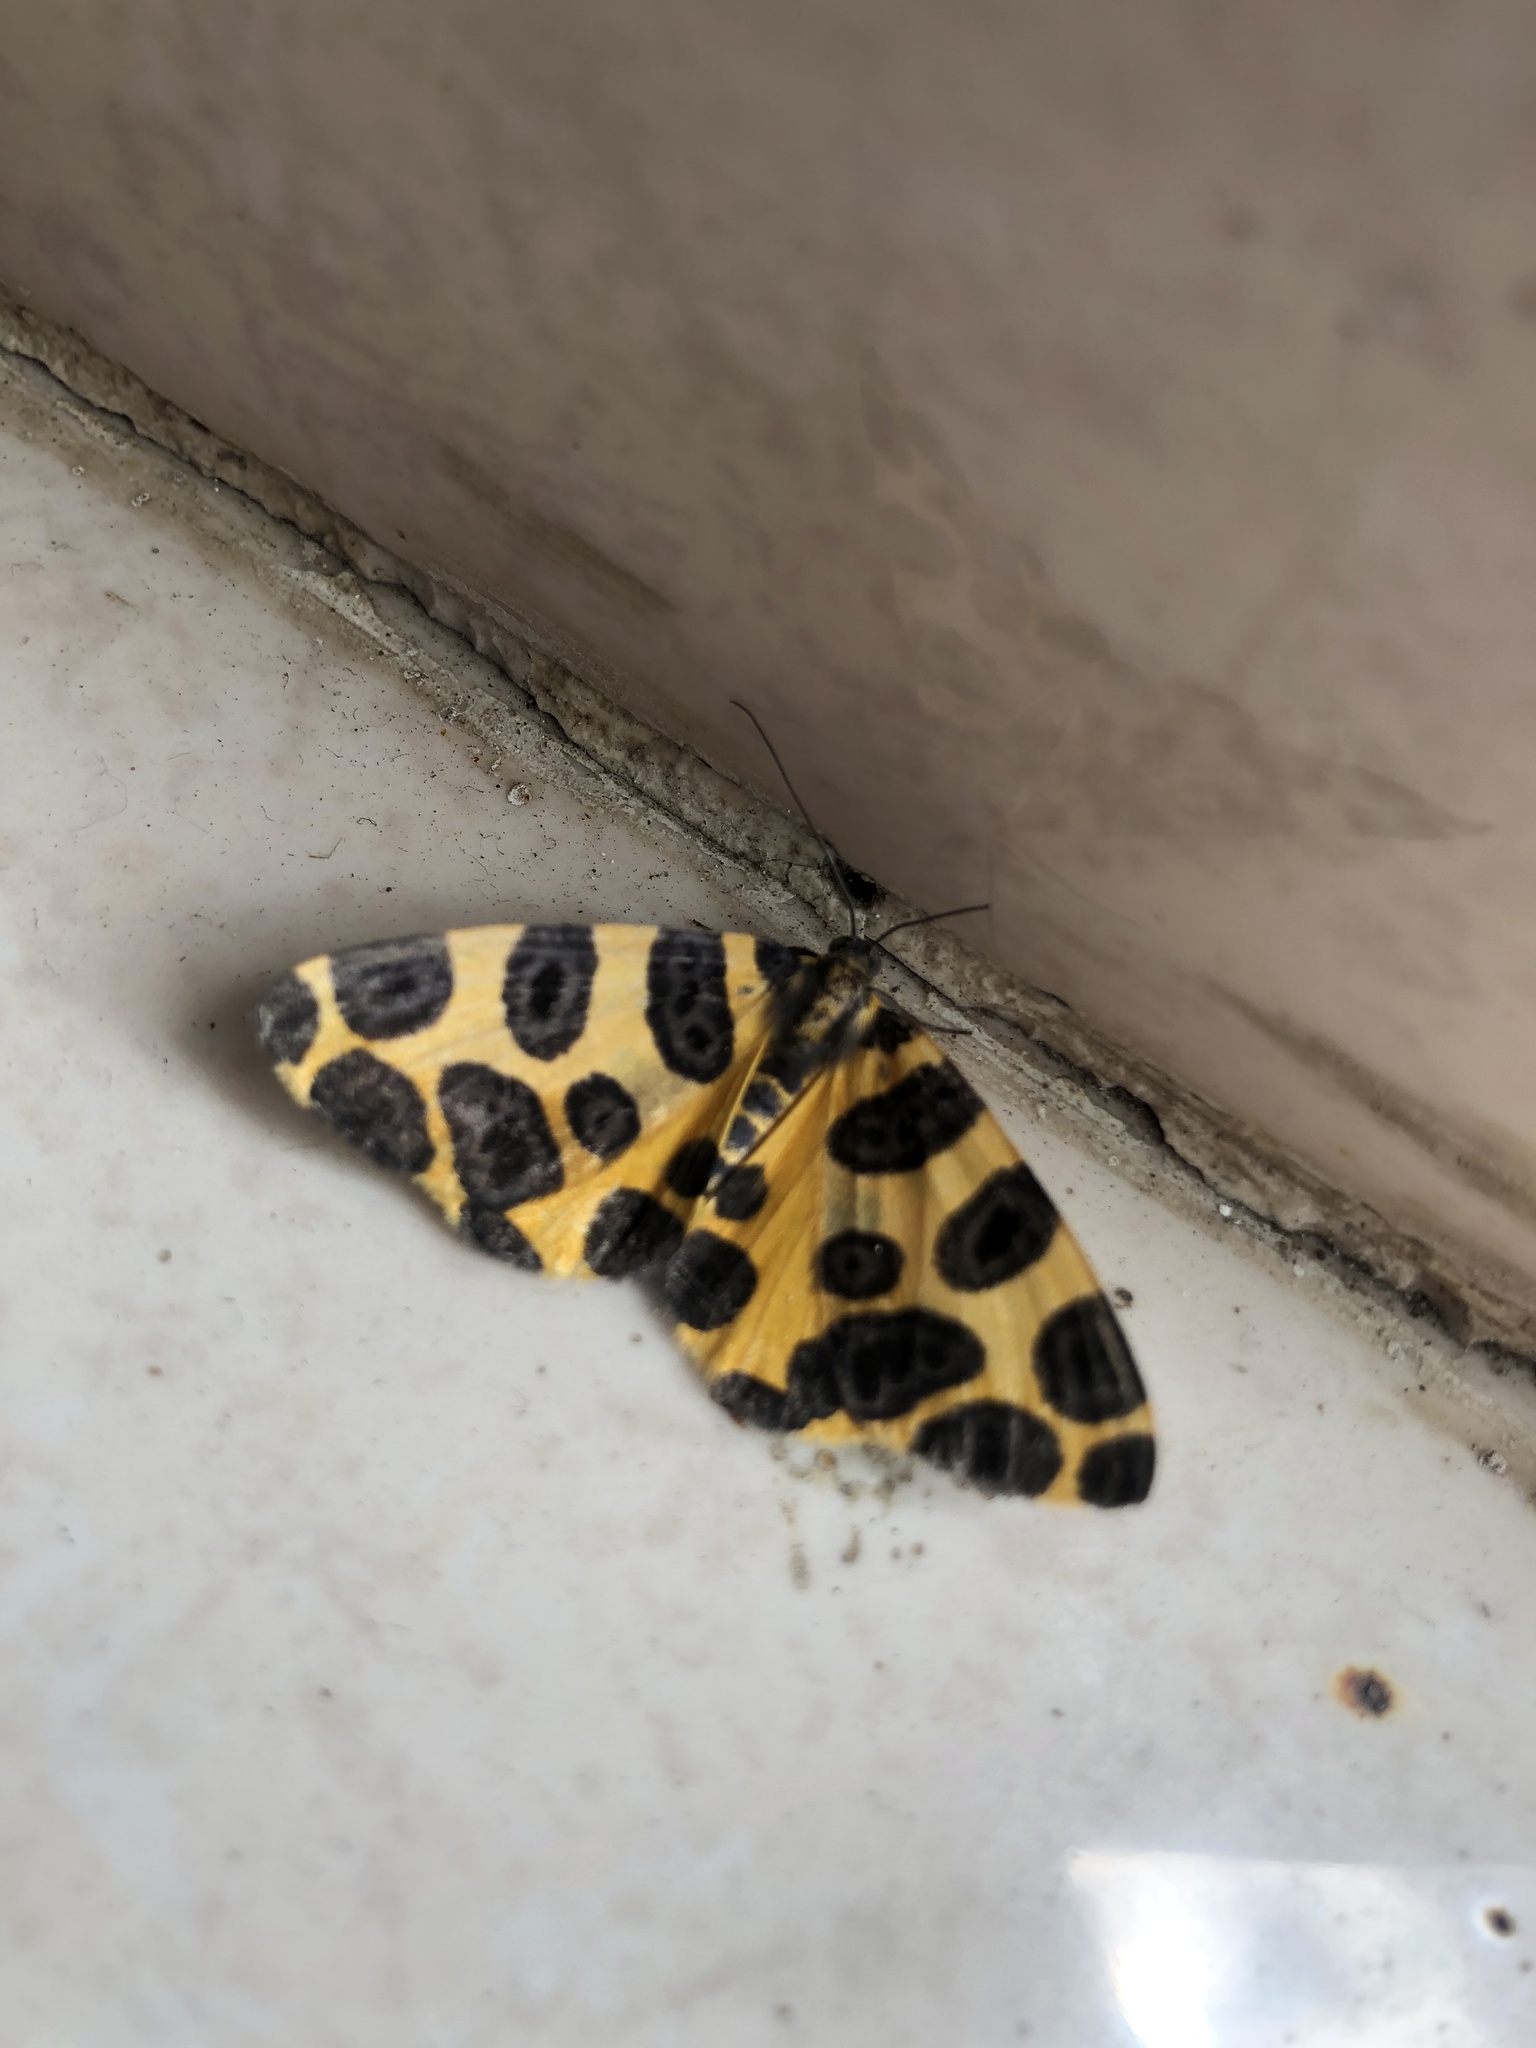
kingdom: Animalia
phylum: Arthropoda
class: Insecta
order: Lepidoptera
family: Geometridae
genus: Pantherodes
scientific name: Pantherodes pardalaria
